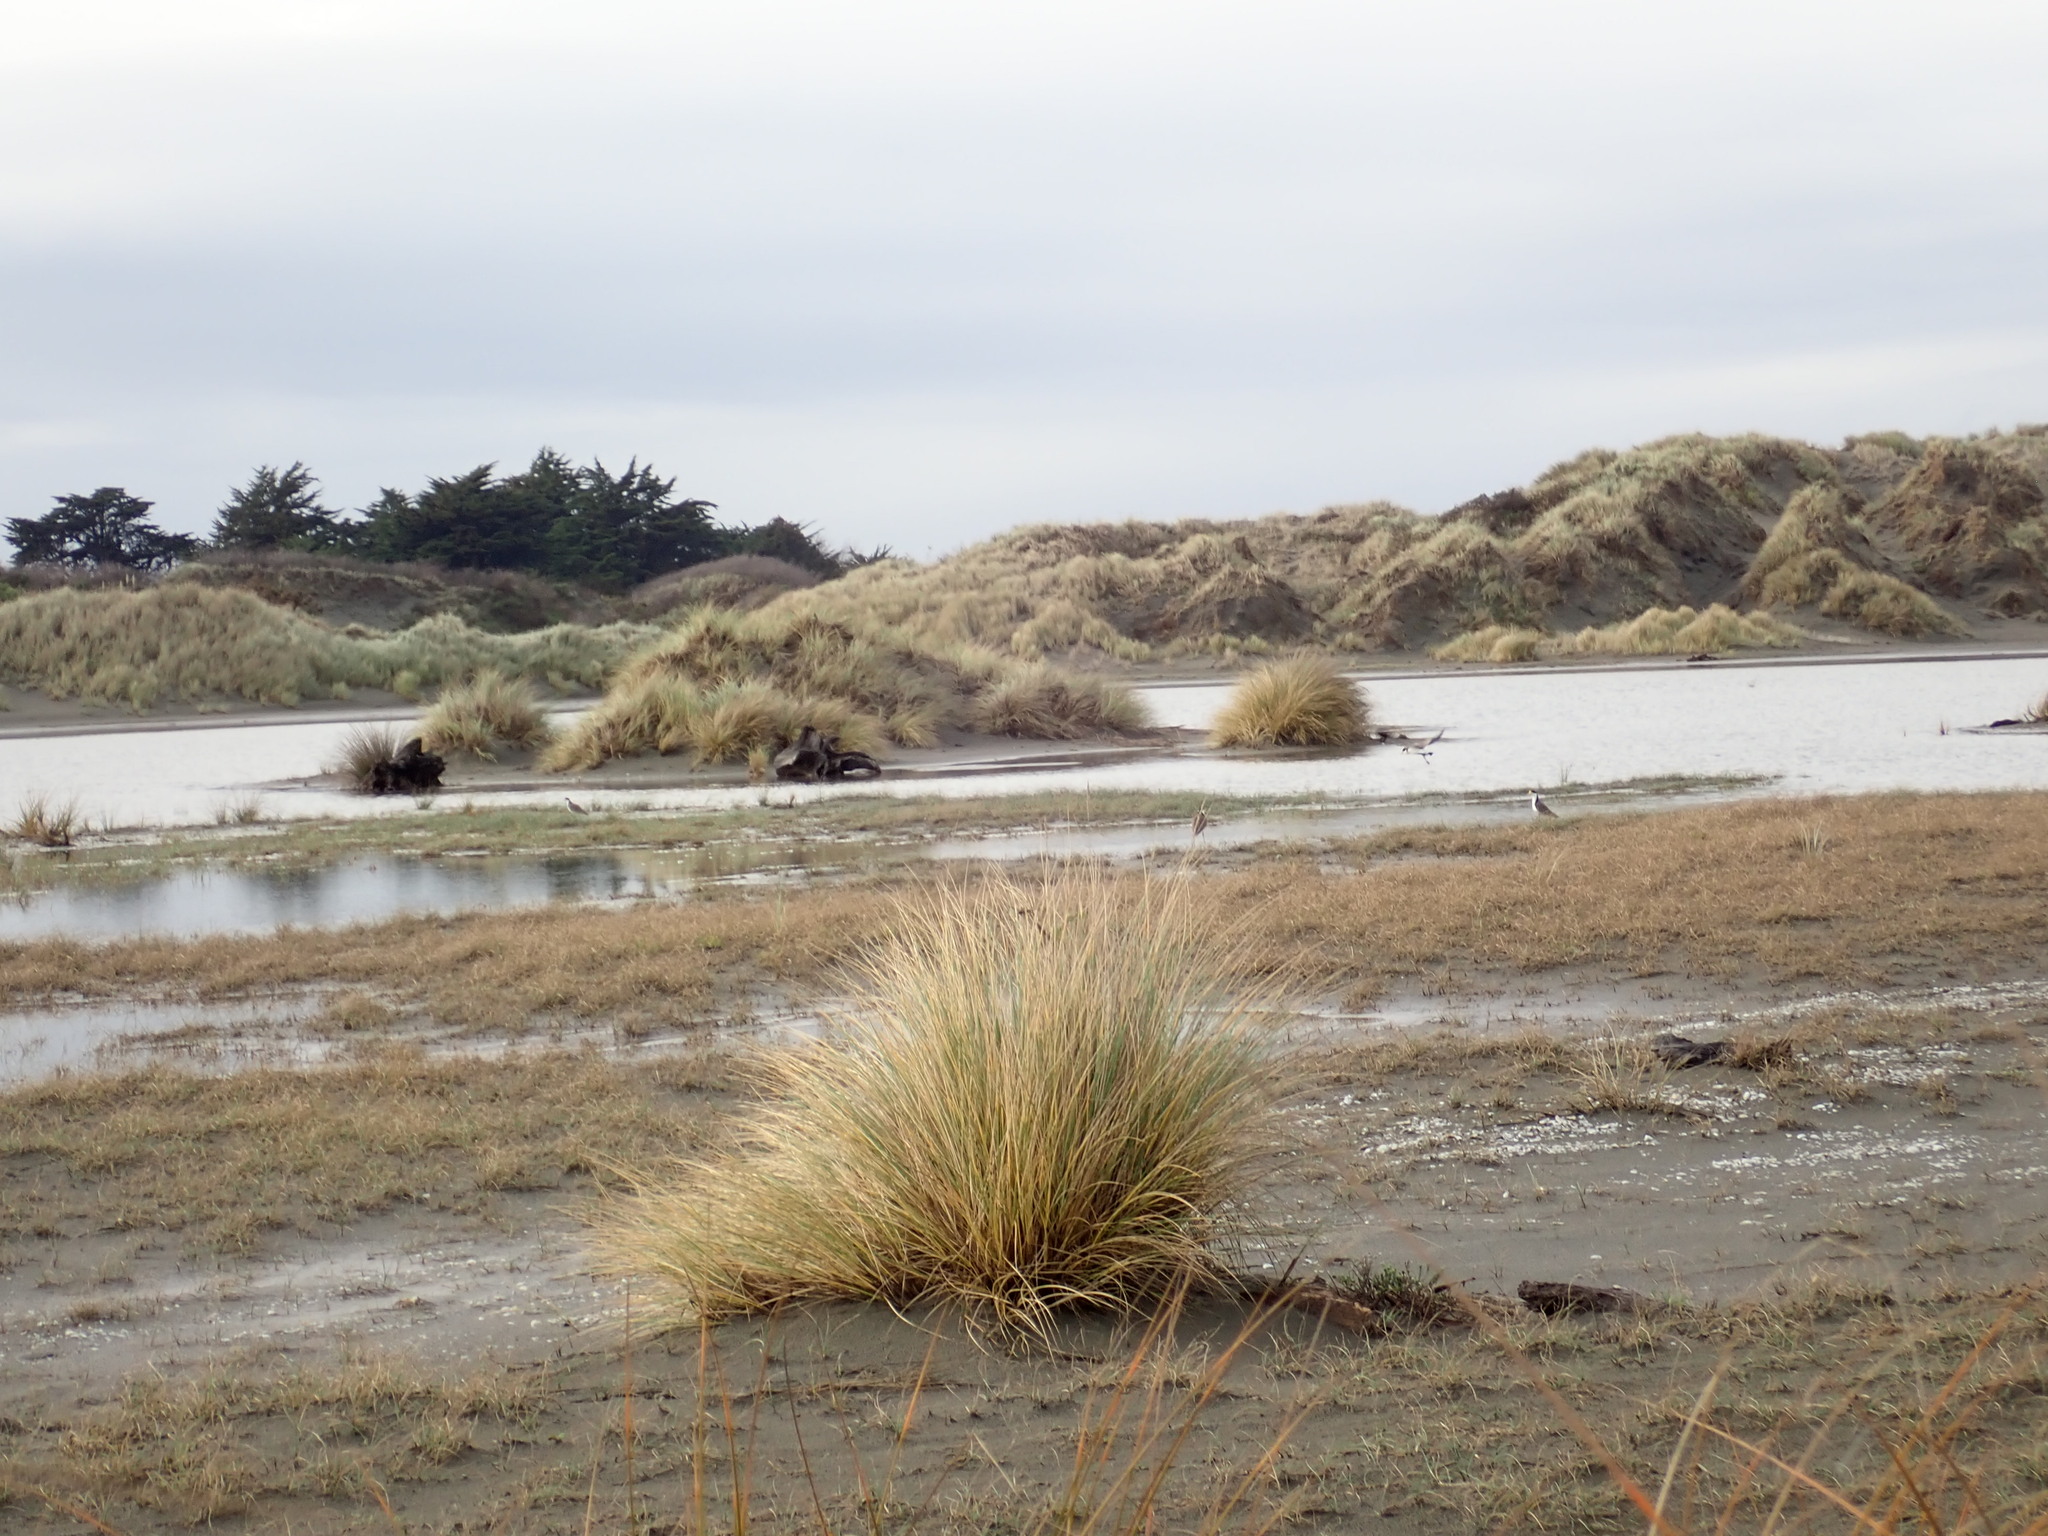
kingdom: Animalia
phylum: Chordata
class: Aves
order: Charadriiformes
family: Charadriidae
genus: Vanellus
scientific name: Vanellus miles
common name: Masked lapwing
